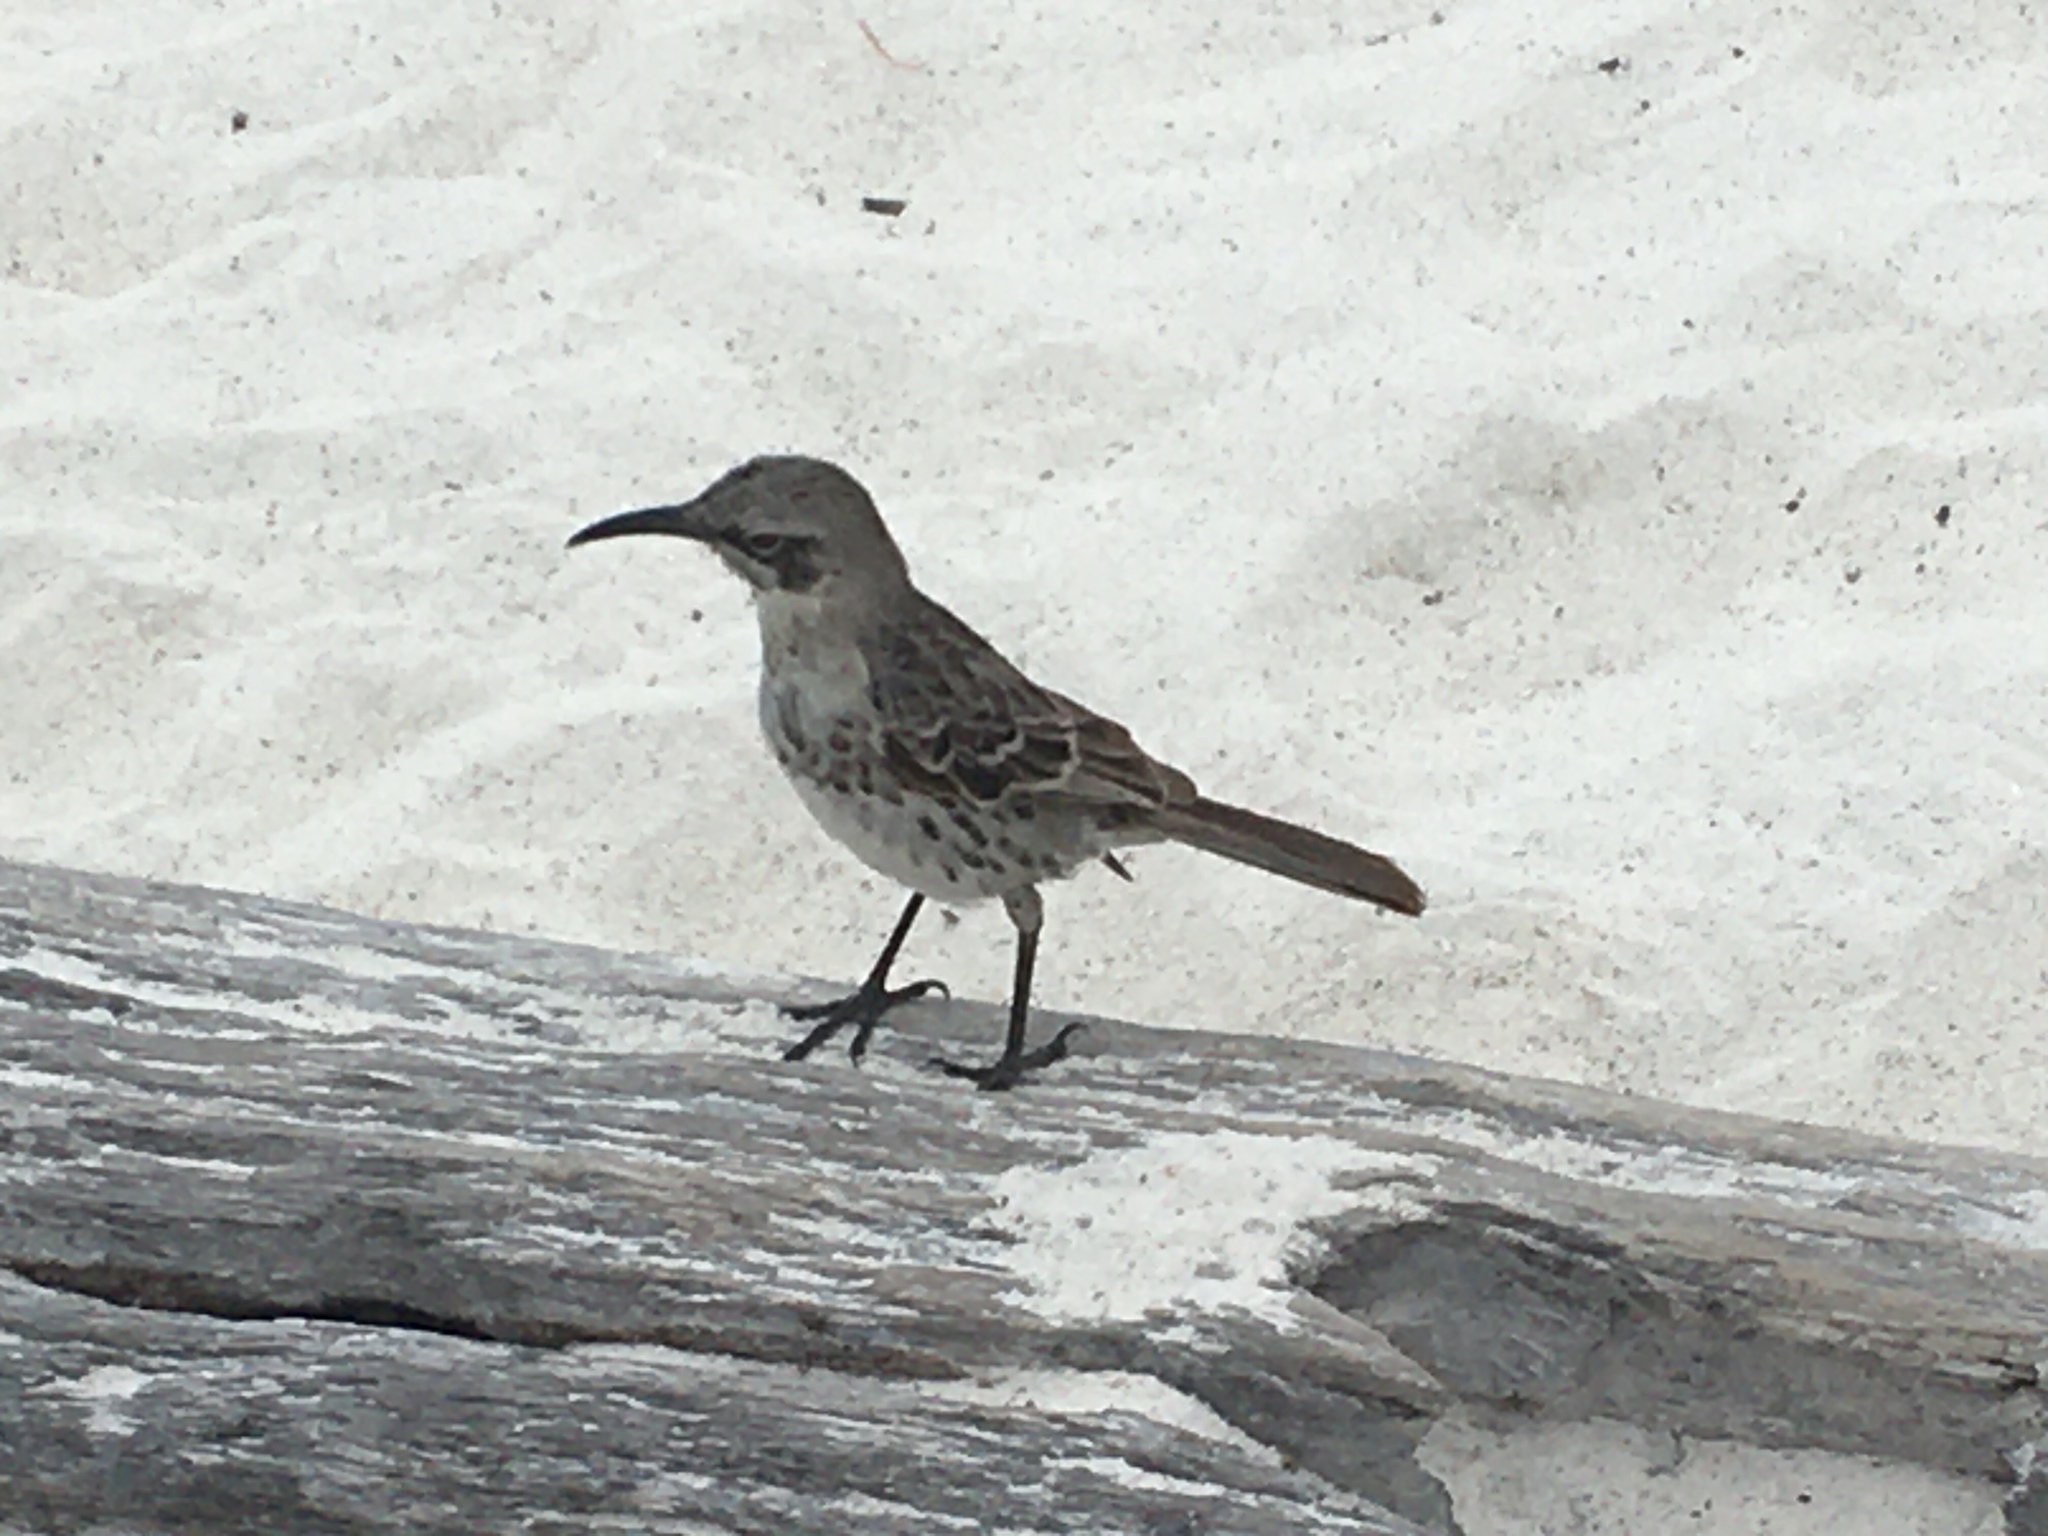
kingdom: Animalia
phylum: Chordata
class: Aves
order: Passeriformes
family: Mimidae
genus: Mimus
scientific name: Mimus macdonaldi
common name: Espanola mockingbird
